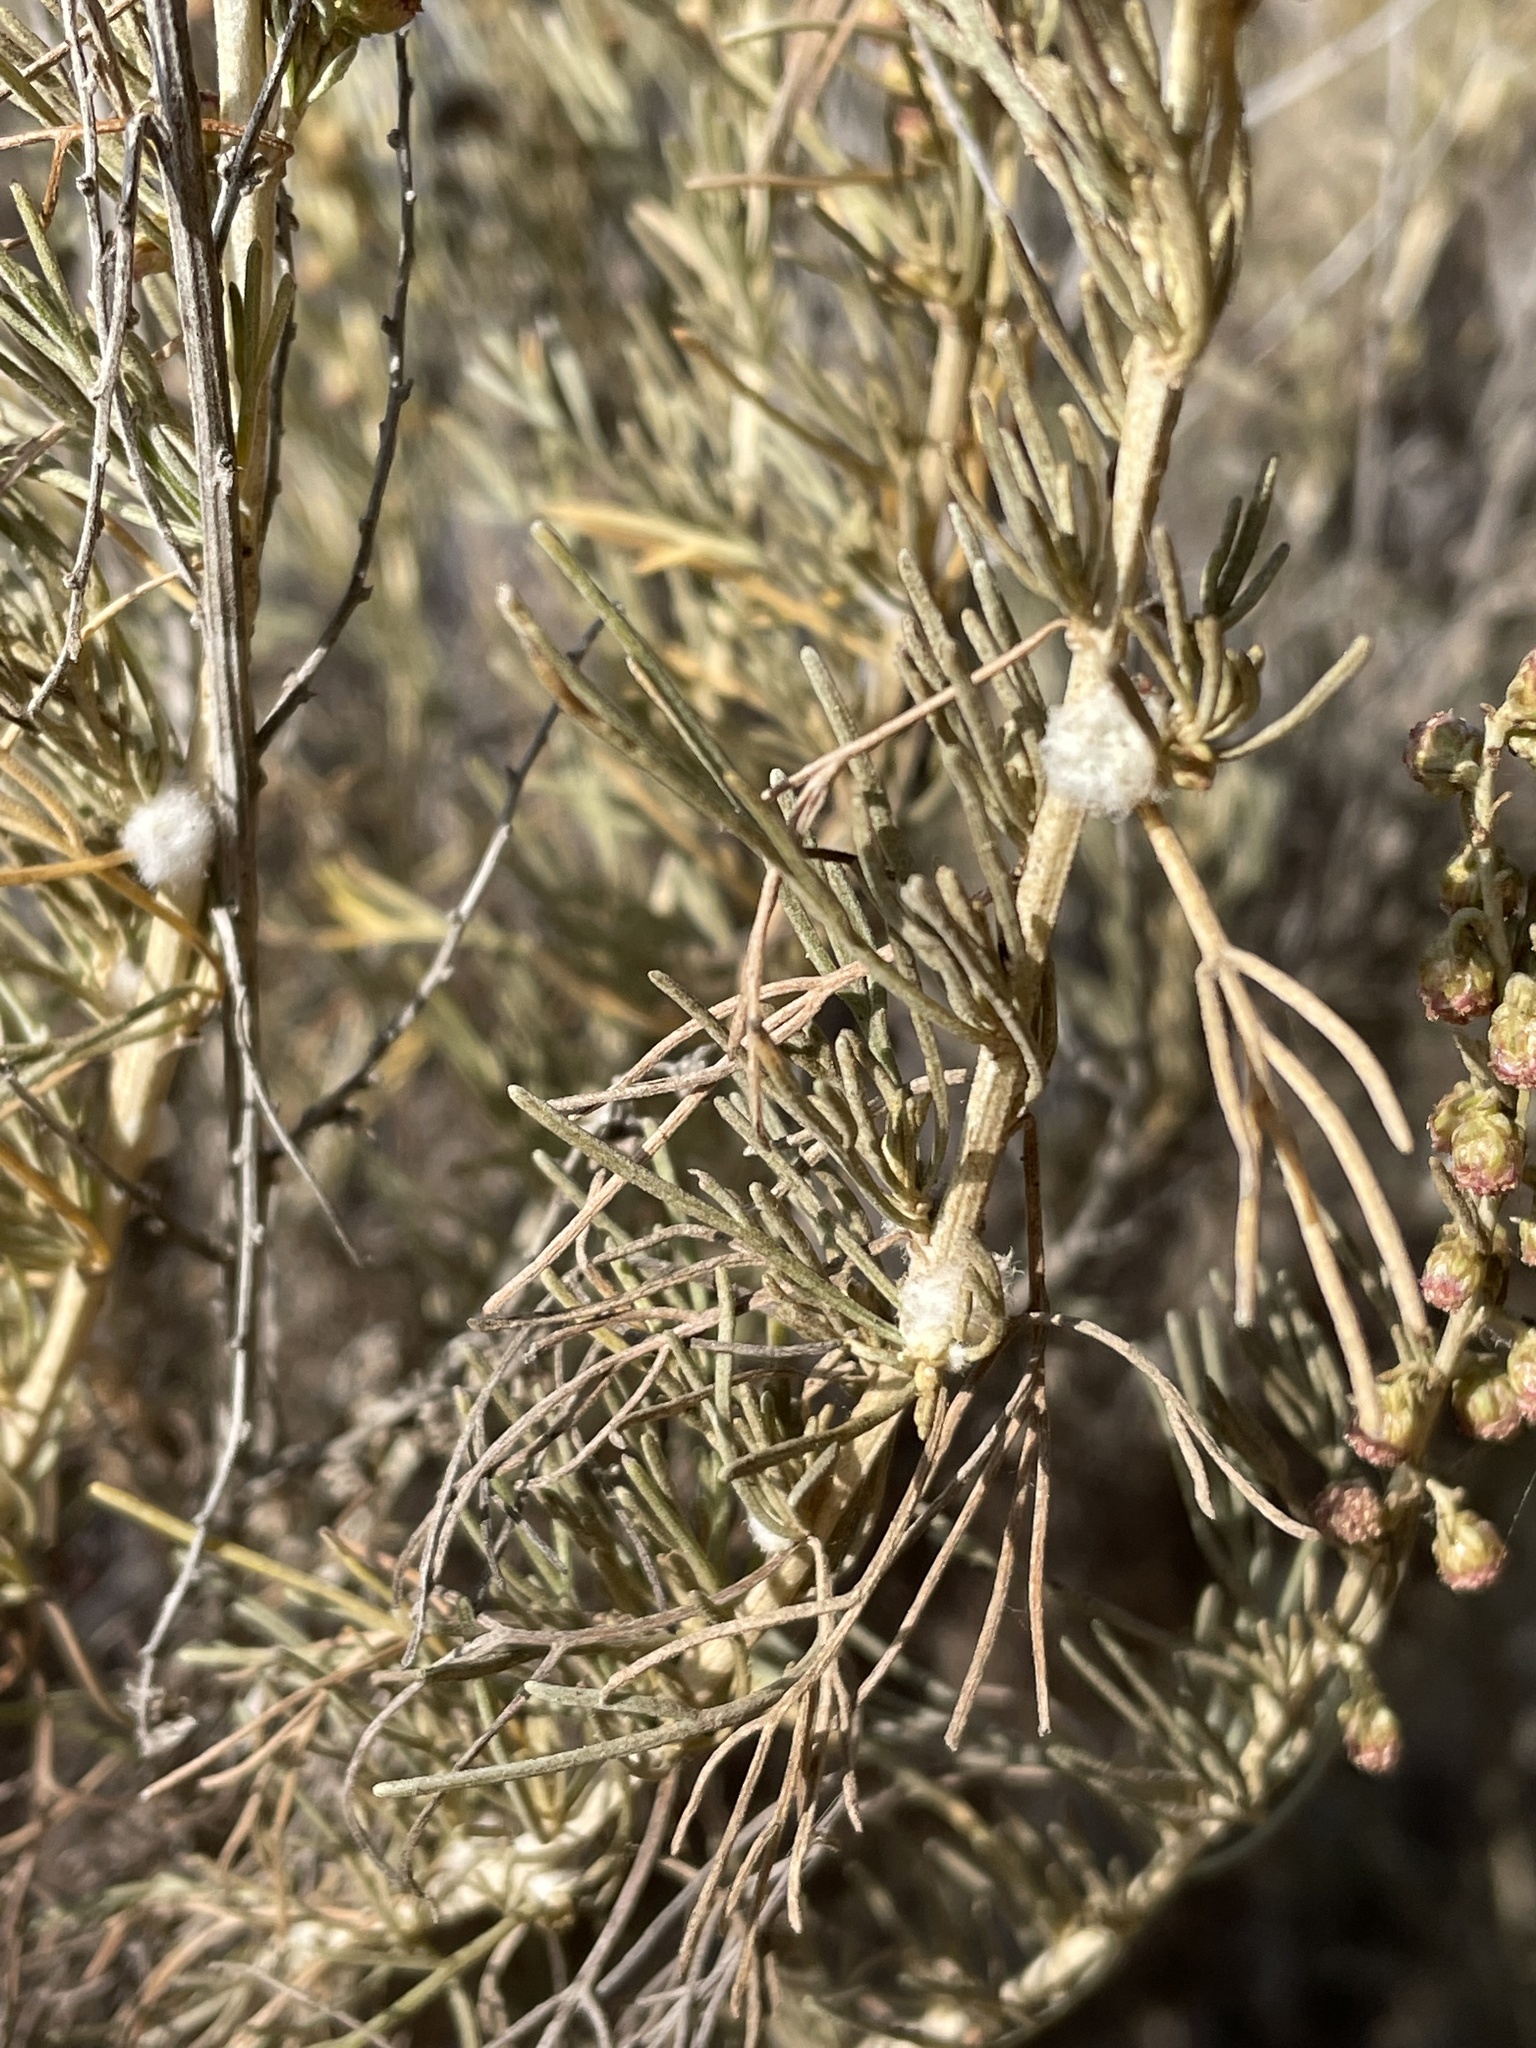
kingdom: Animalia
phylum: Arthropoda
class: Insecta
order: Diptera
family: Cecidomyiidae
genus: Rhopalomyia
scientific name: Rhopalomyia floccosa
